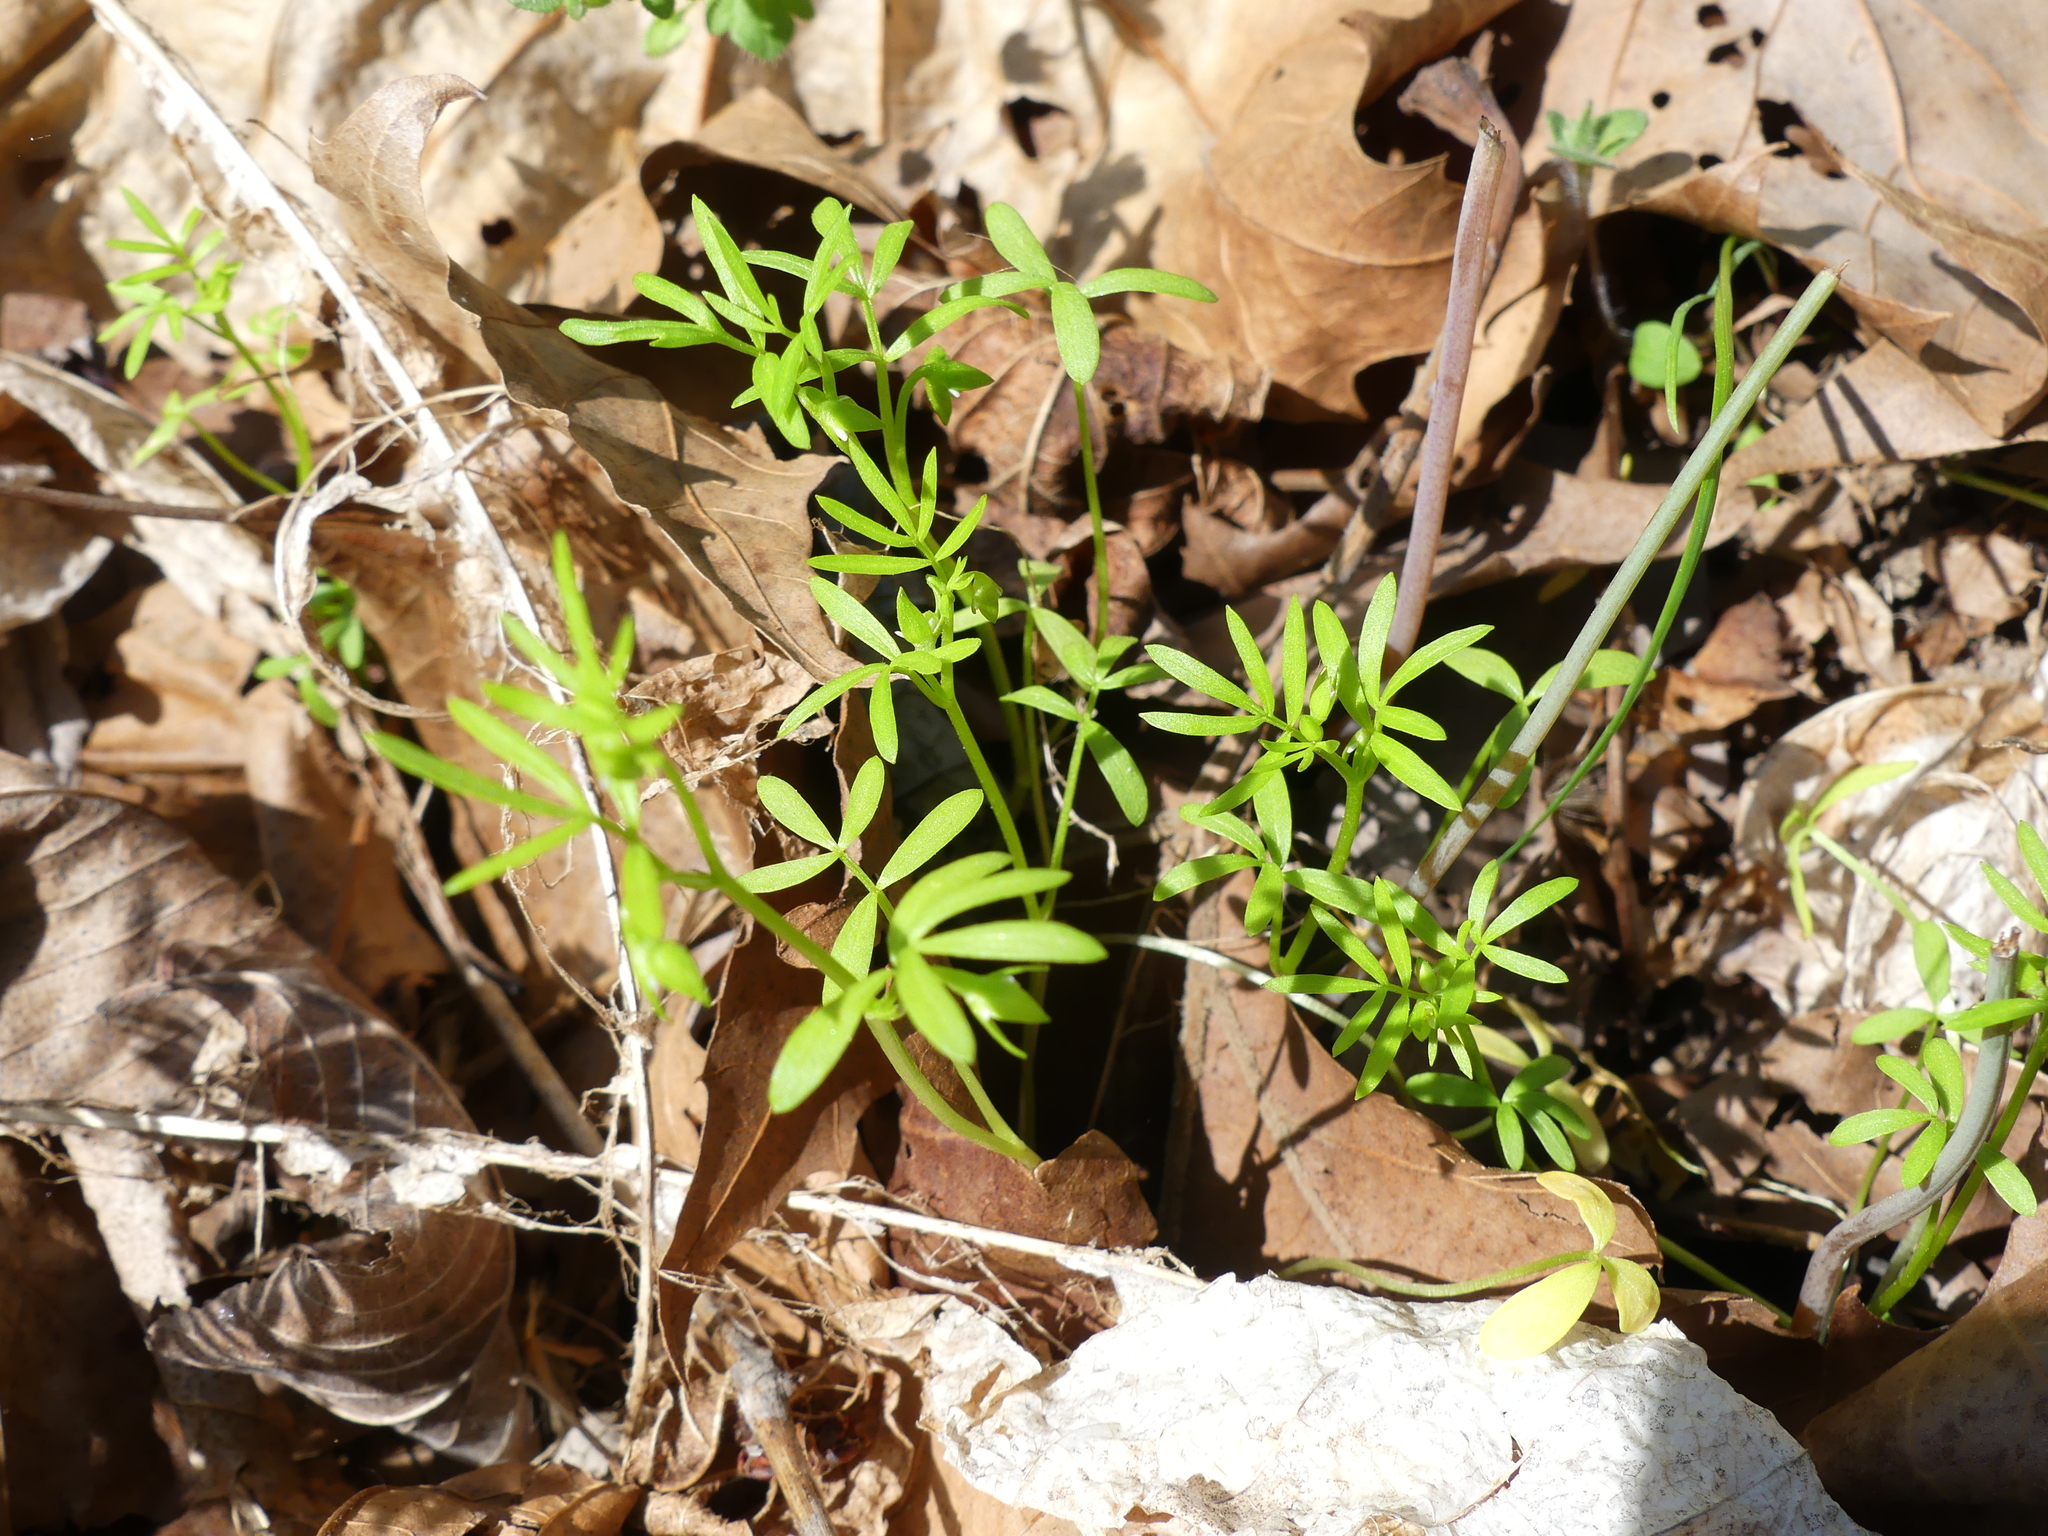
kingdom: Plantae
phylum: Tracheophyta
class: Magnoliopsida
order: Brassicales
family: Limnanthaceae
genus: Floerkea
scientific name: Floerkea proserpinacoides
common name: False mermaid
